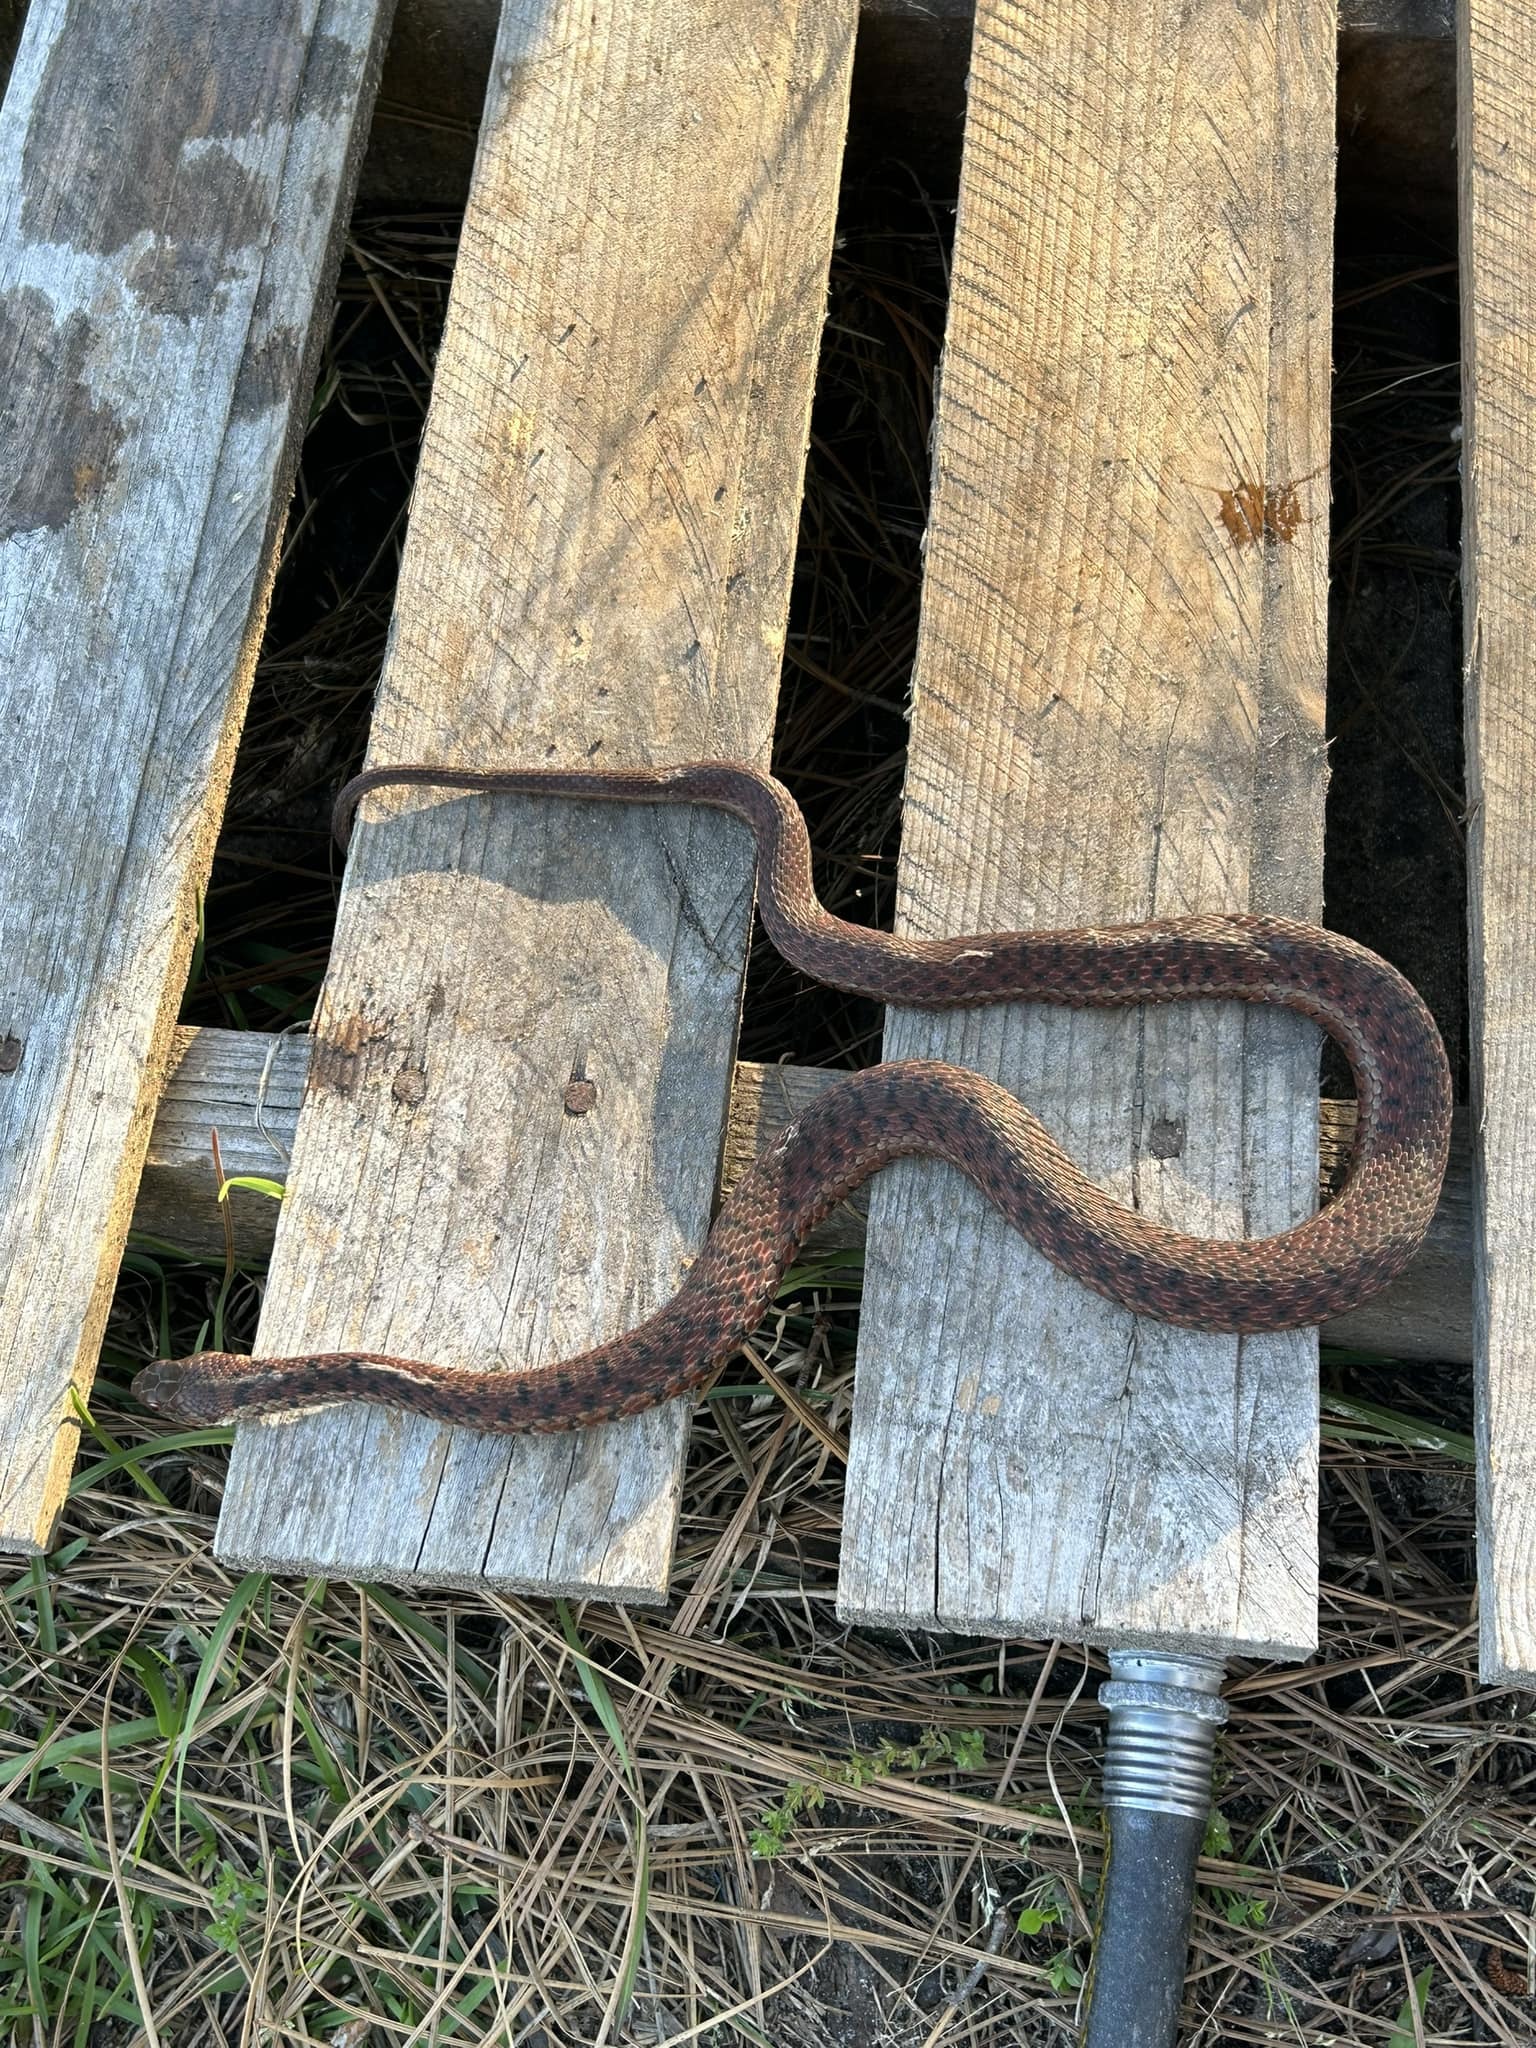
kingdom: Animalia
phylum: Chordata
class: Squamata
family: Colubridae
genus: Thamnophis
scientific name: Thamnophis sirtalis
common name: Common garter snake
